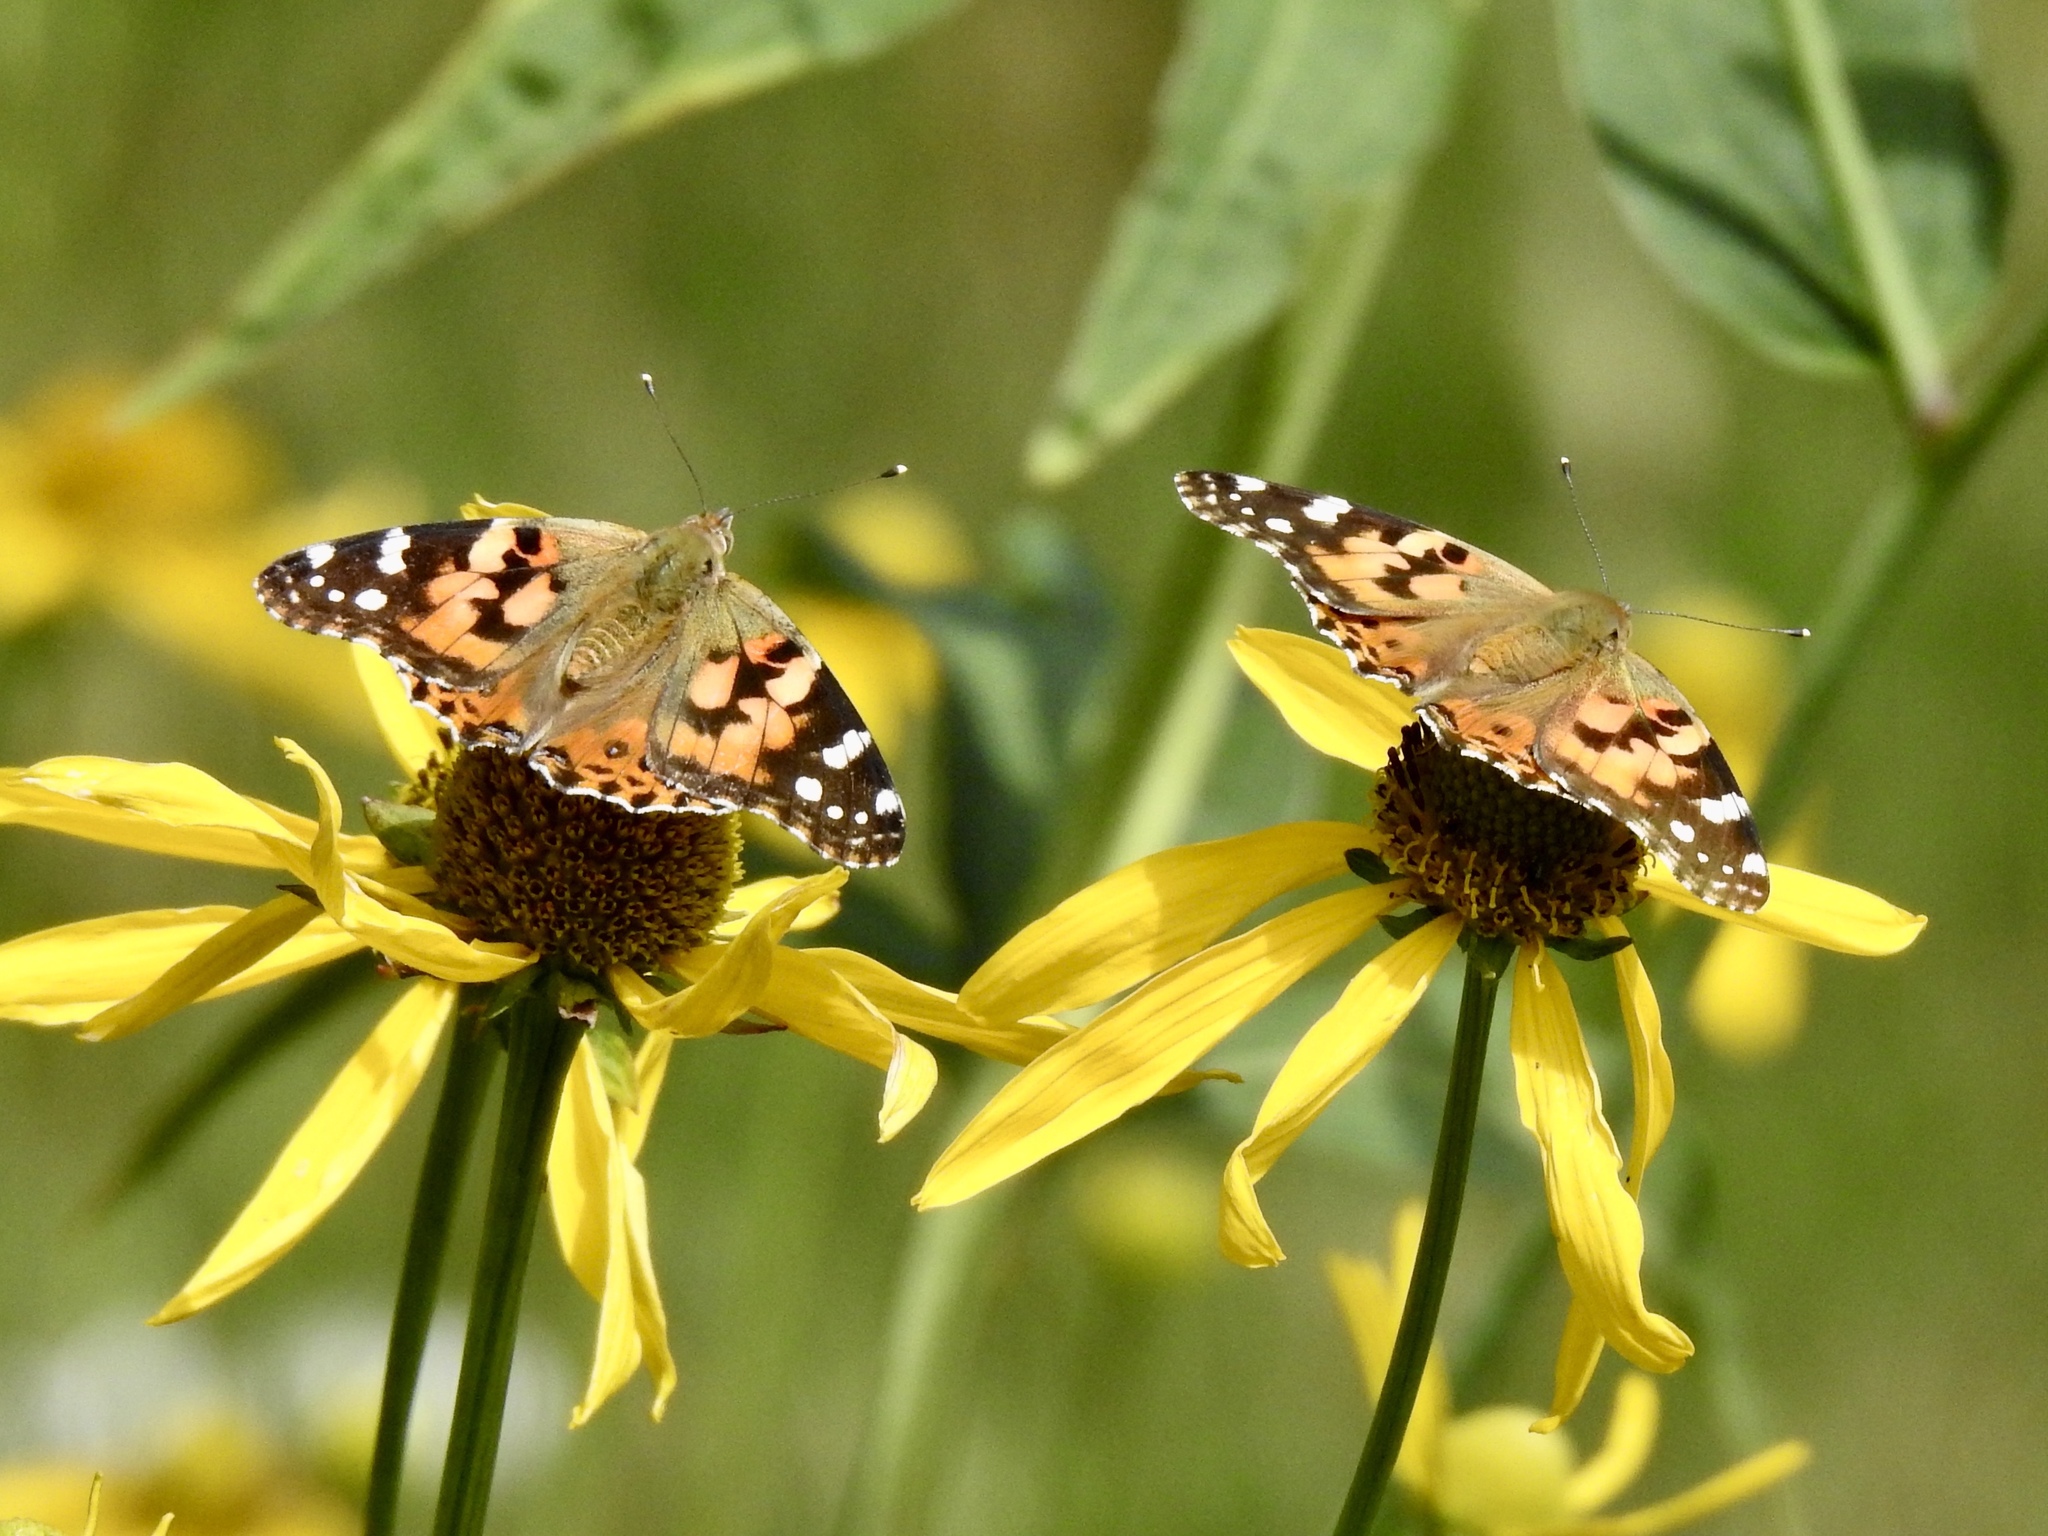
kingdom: Animalia
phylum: Arthropoda
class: Insecta
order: Lepidoptera
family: Nymphalidae
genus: Vanessa
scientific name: Vanessa cardui
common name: Painted lady
